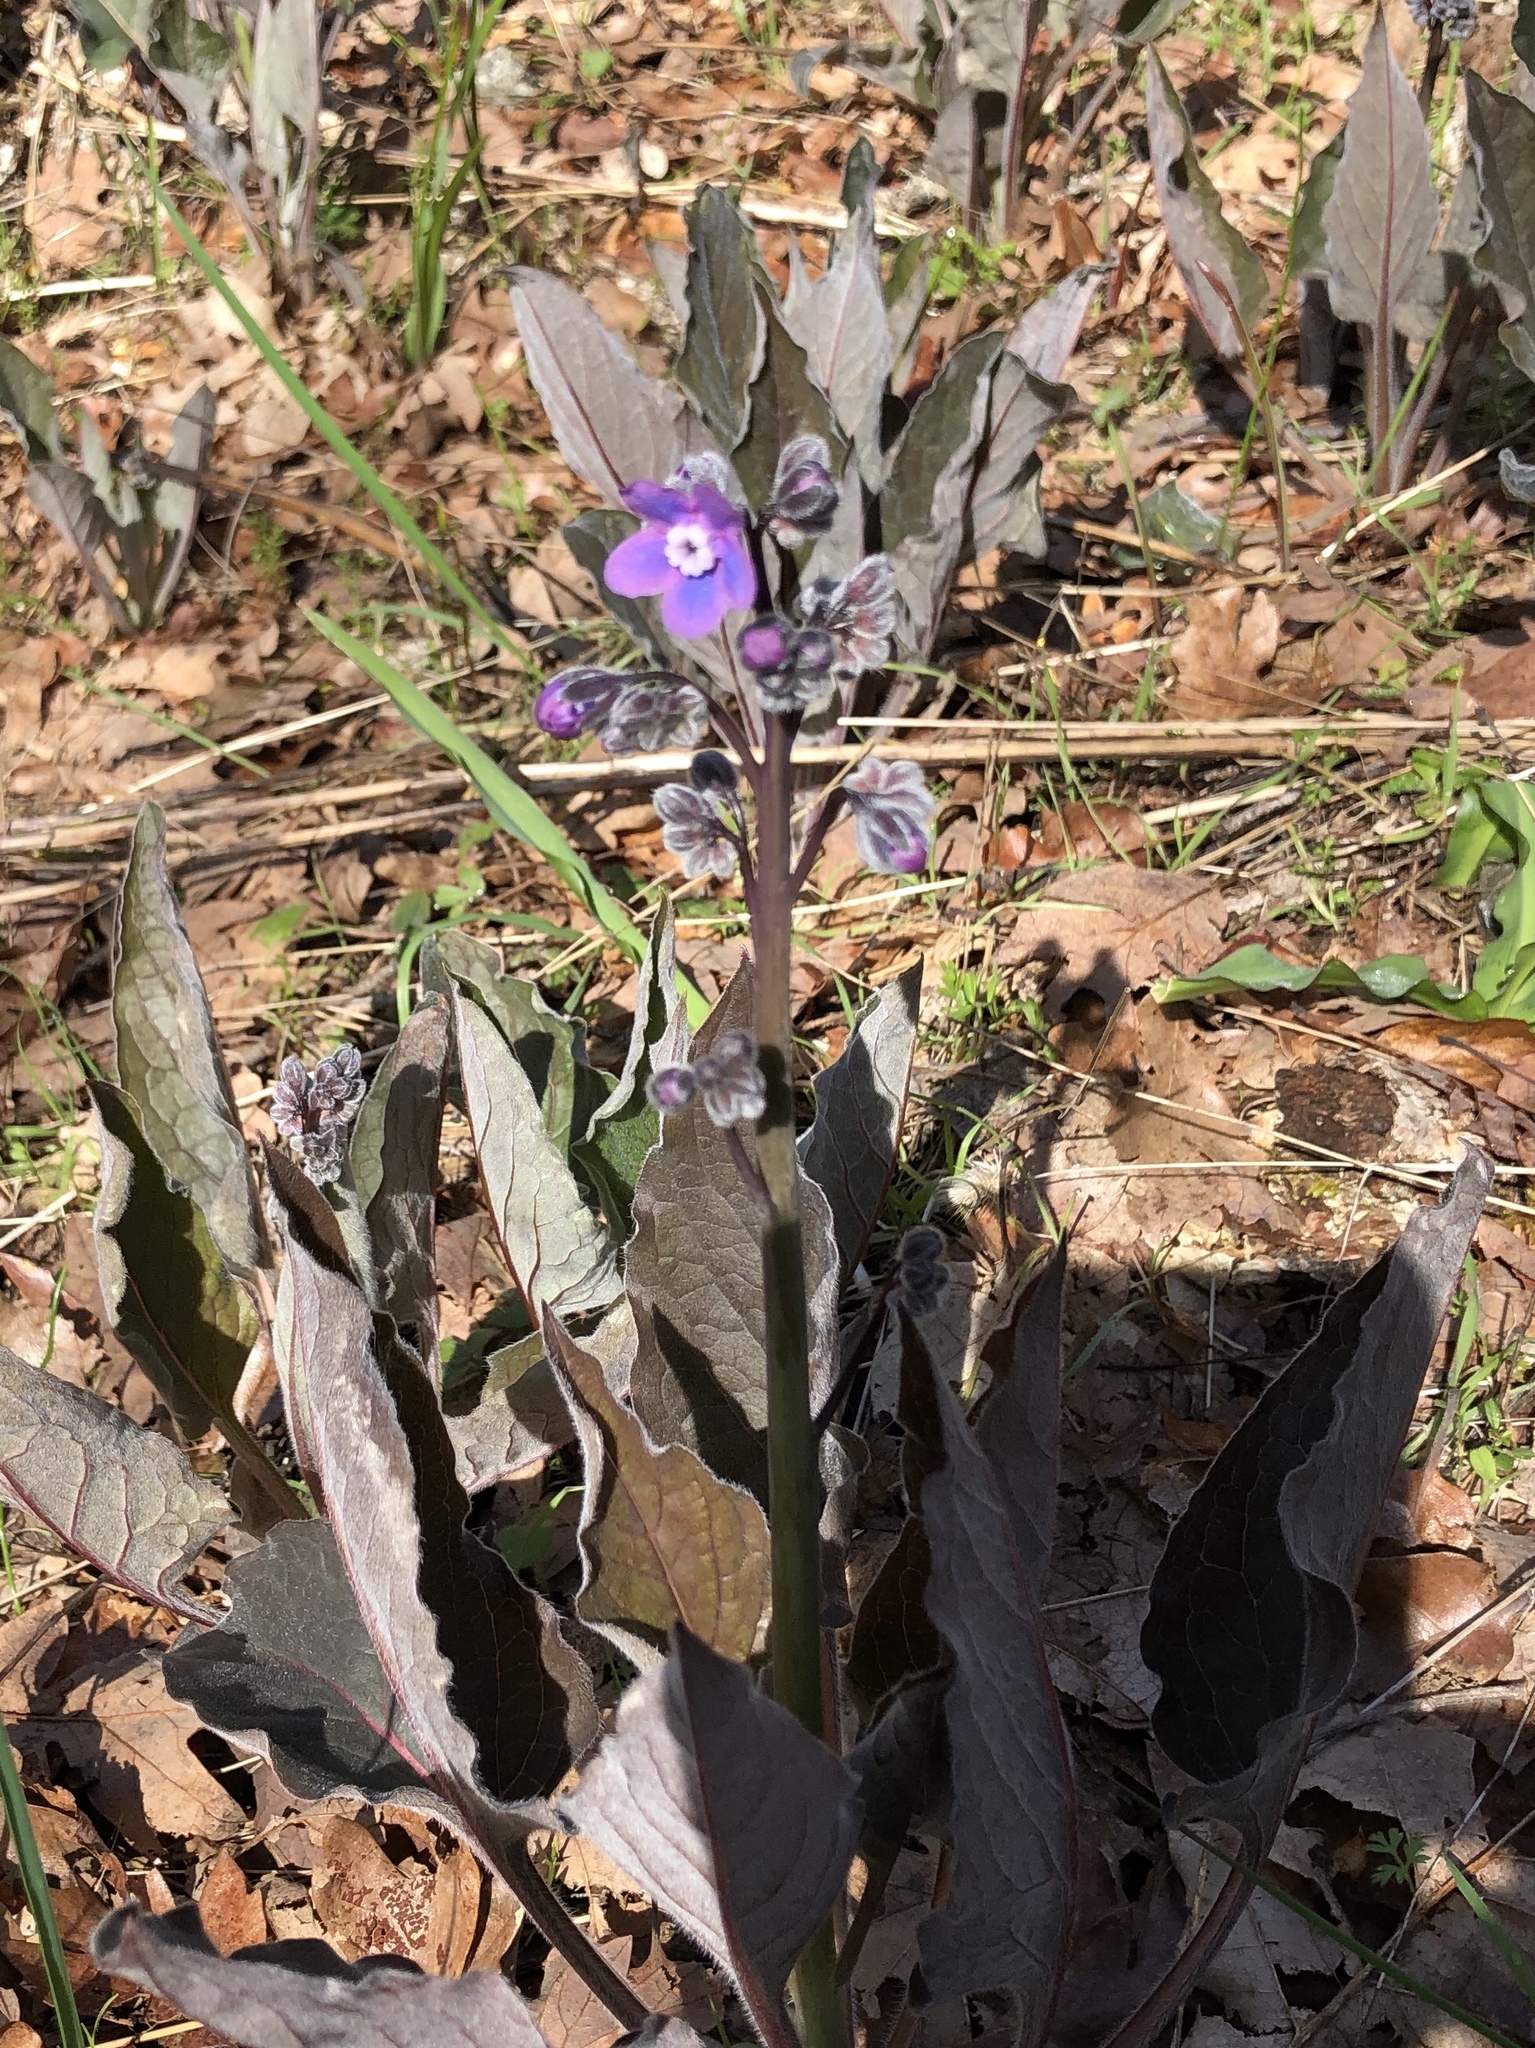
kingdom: Plantae
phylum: Tracheophyta
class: Magnoliopsida
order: Boraginales
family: Boraginaceae
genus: Adelinia
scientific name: Adelinia grande
